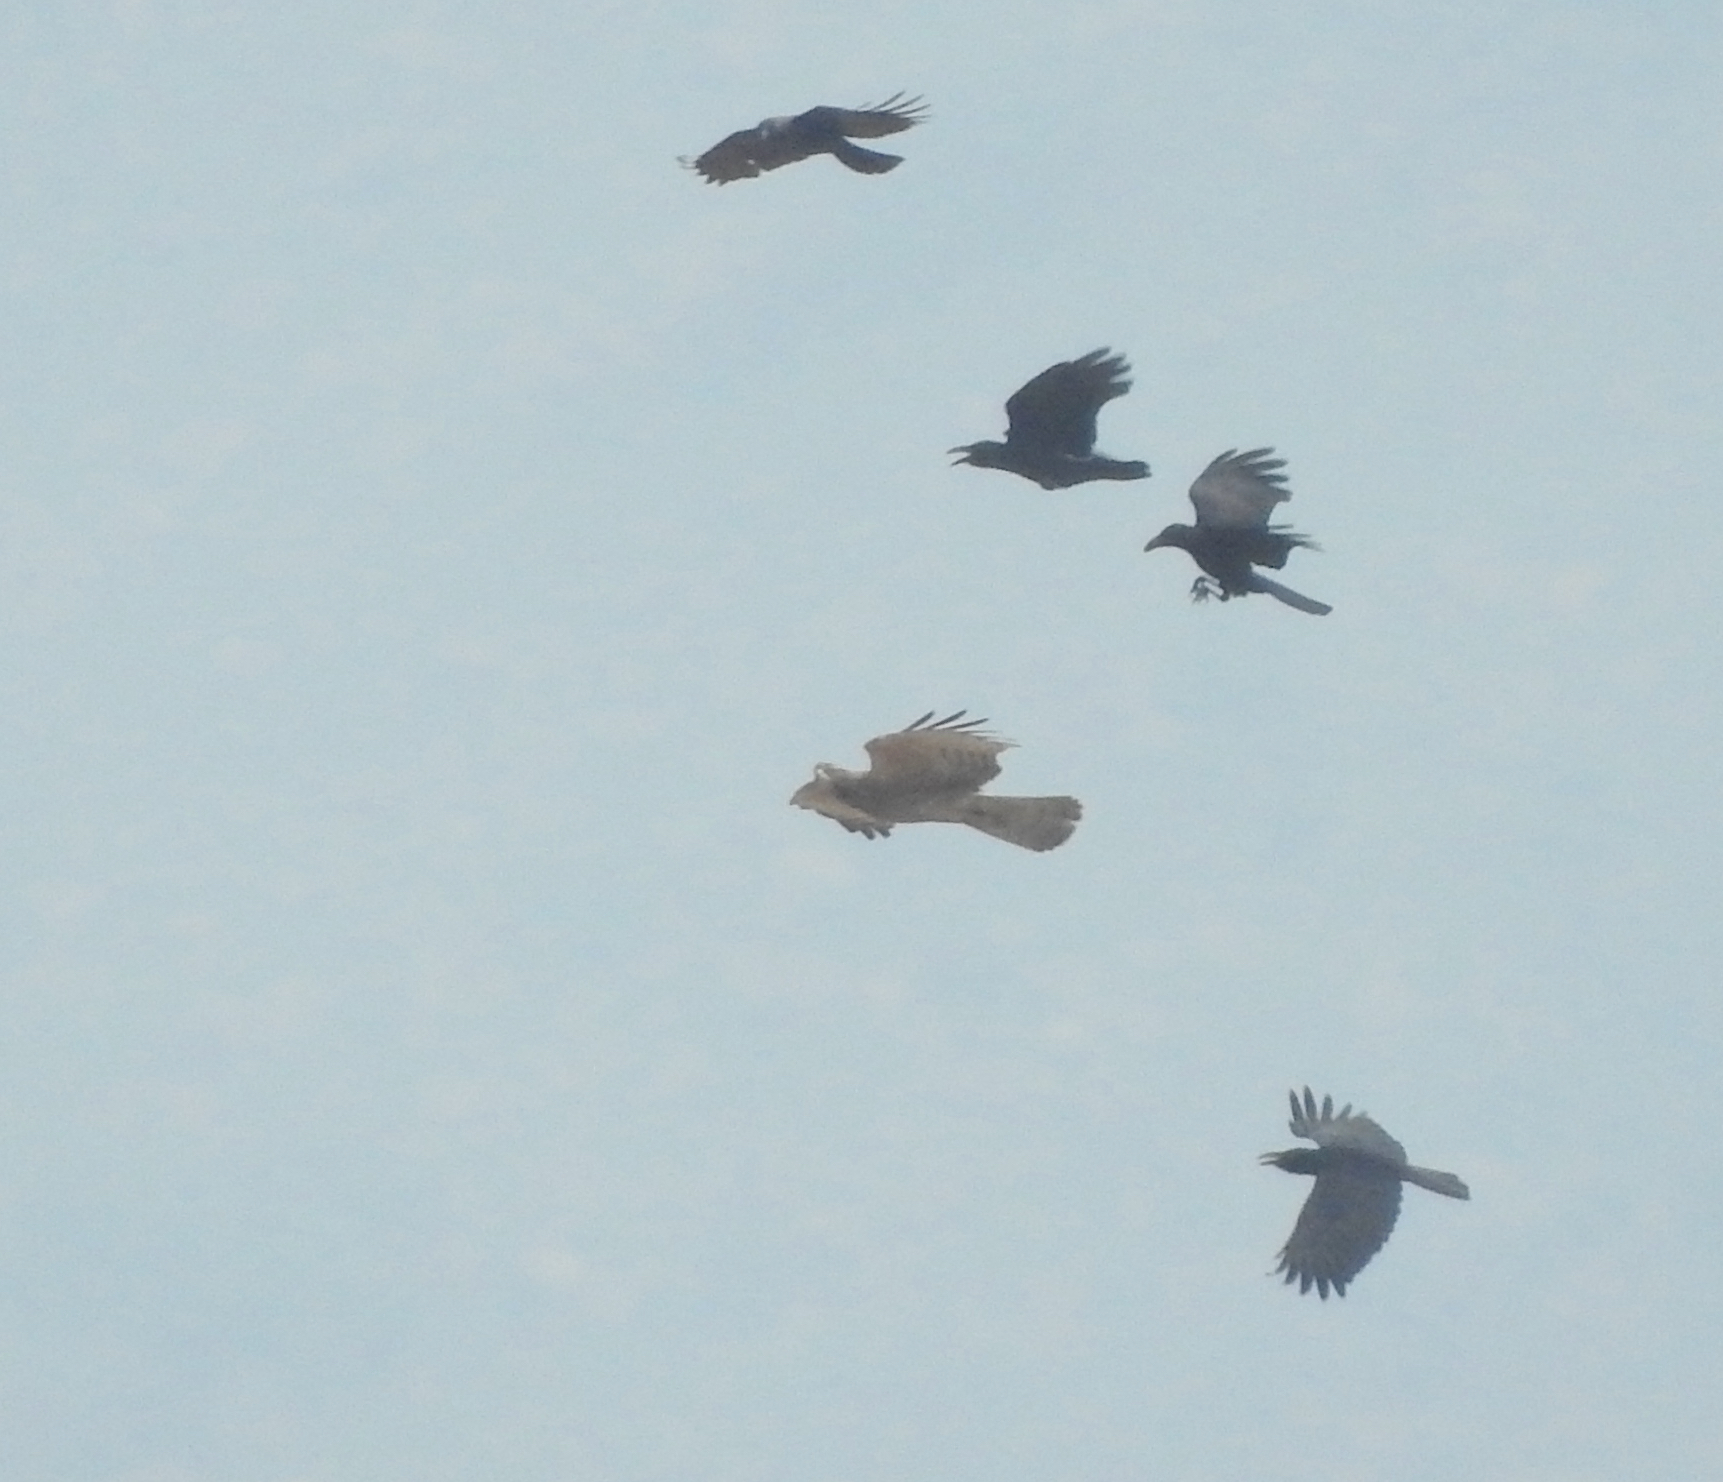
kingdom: Animalia
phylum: Chordata
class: Aves
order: Accipitriformes
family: Accipitridae
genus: Pernis
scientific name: Pernis ptilorhynchus
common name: Crested honey buzzard
